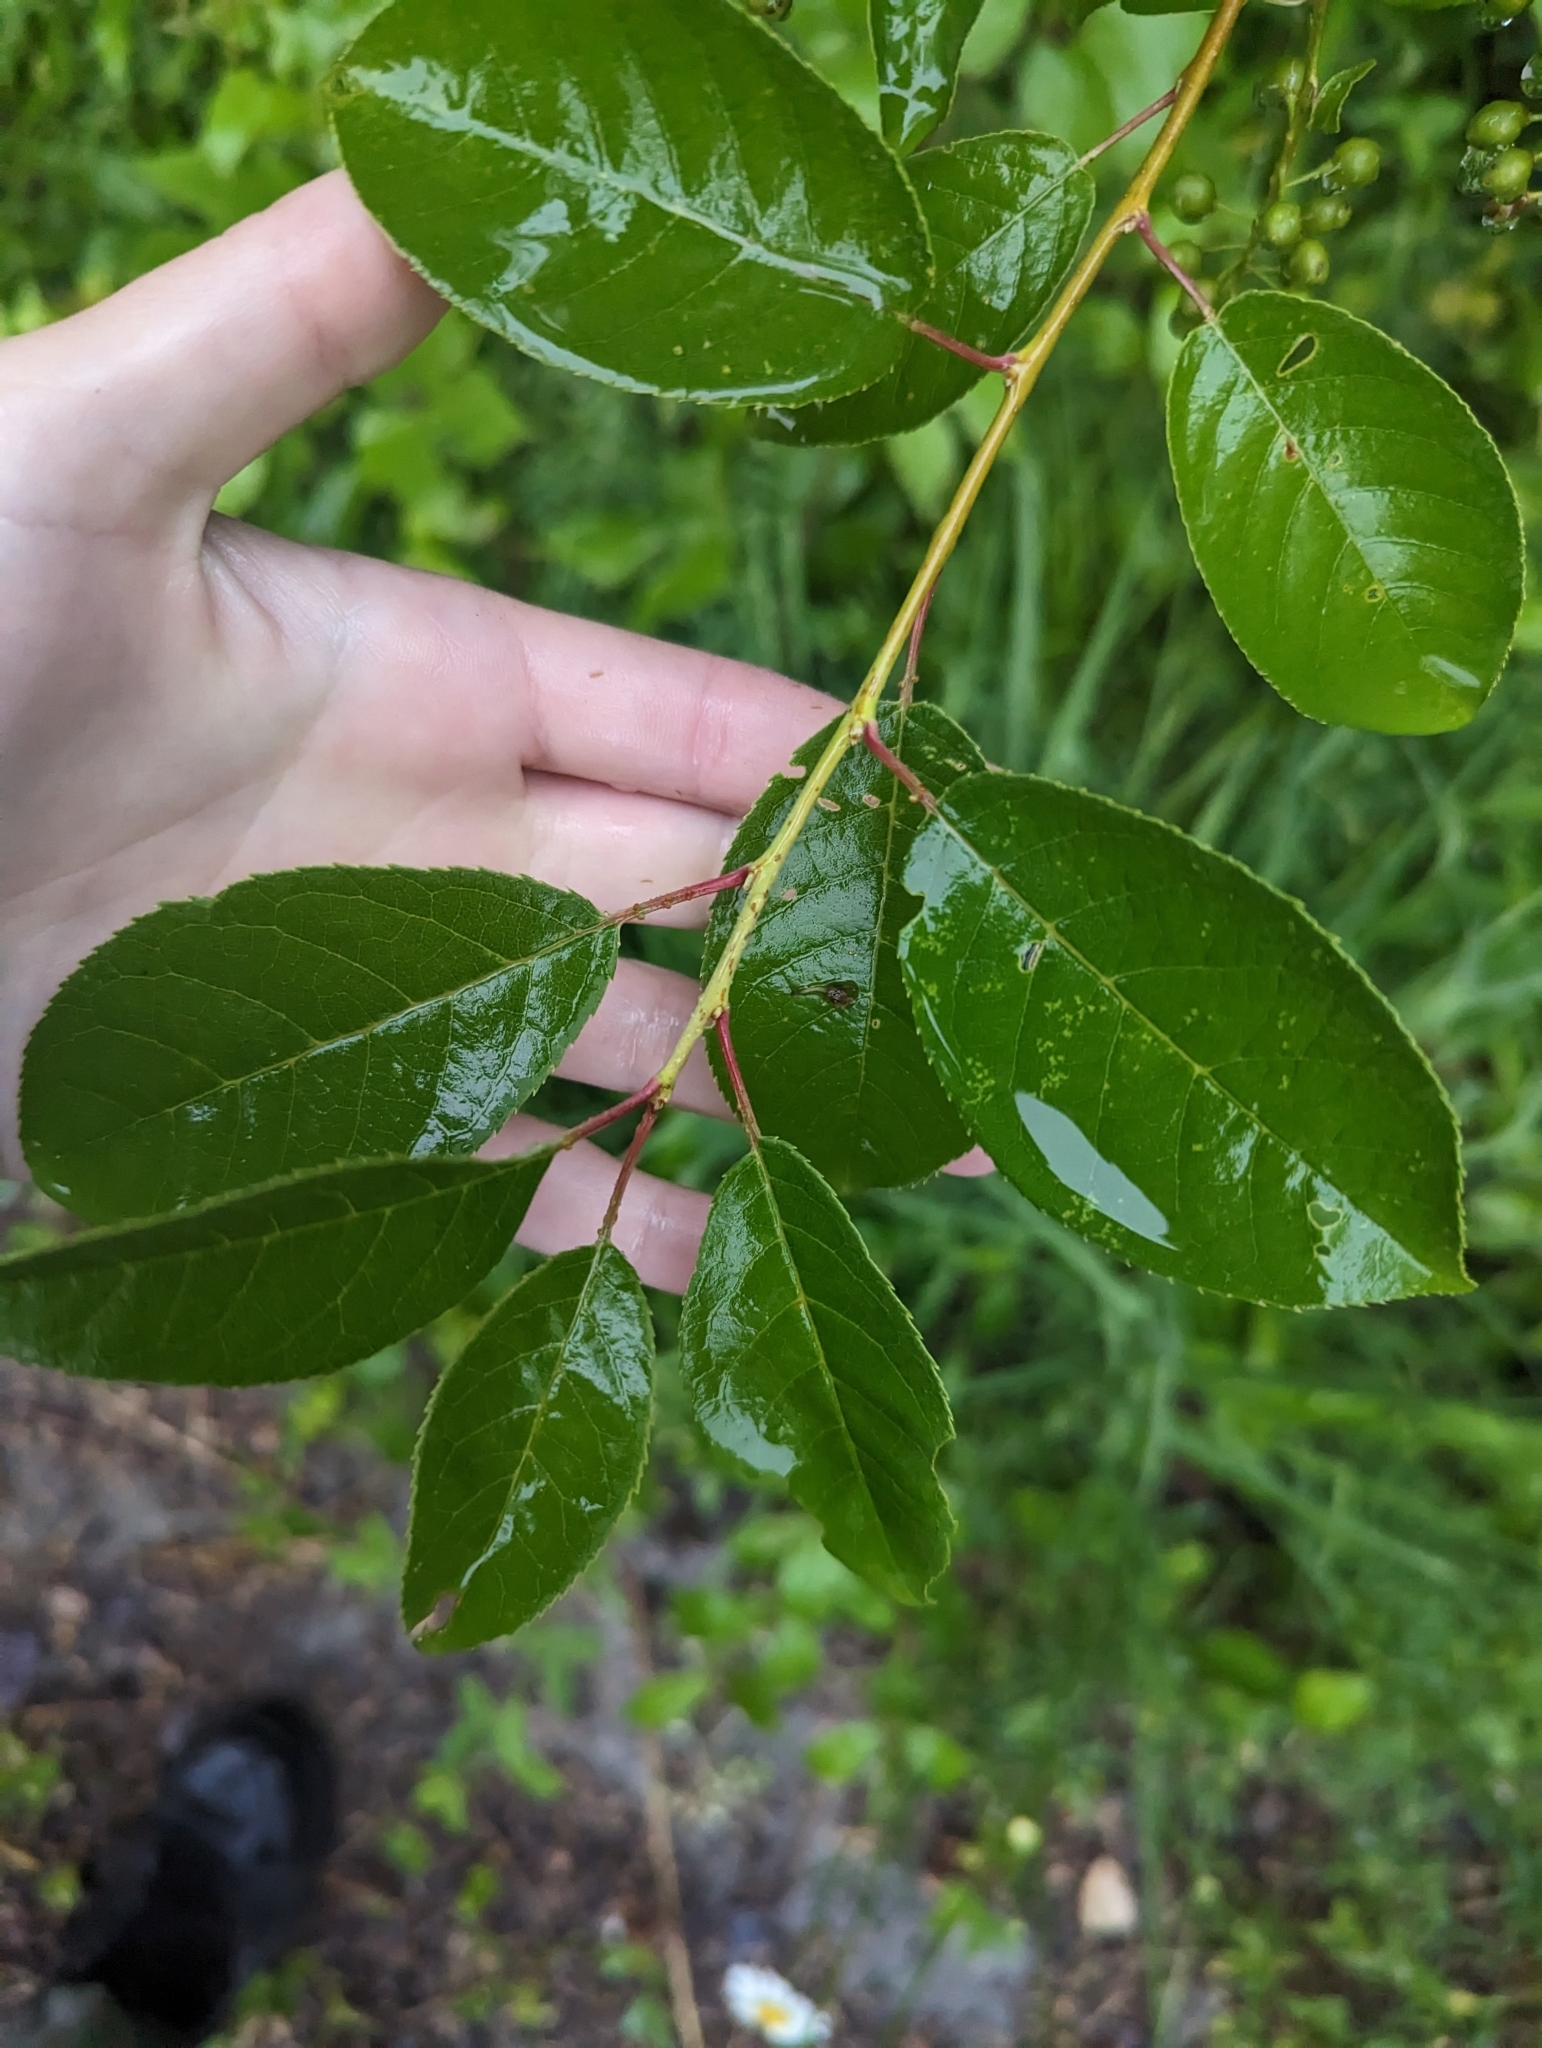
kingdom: Plantae
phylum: Tracheophyta
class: Magnoliopsida
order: Rosales
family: Rosaceae
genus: Prunus
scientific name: Prunus virginiana
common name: Chokecherry
